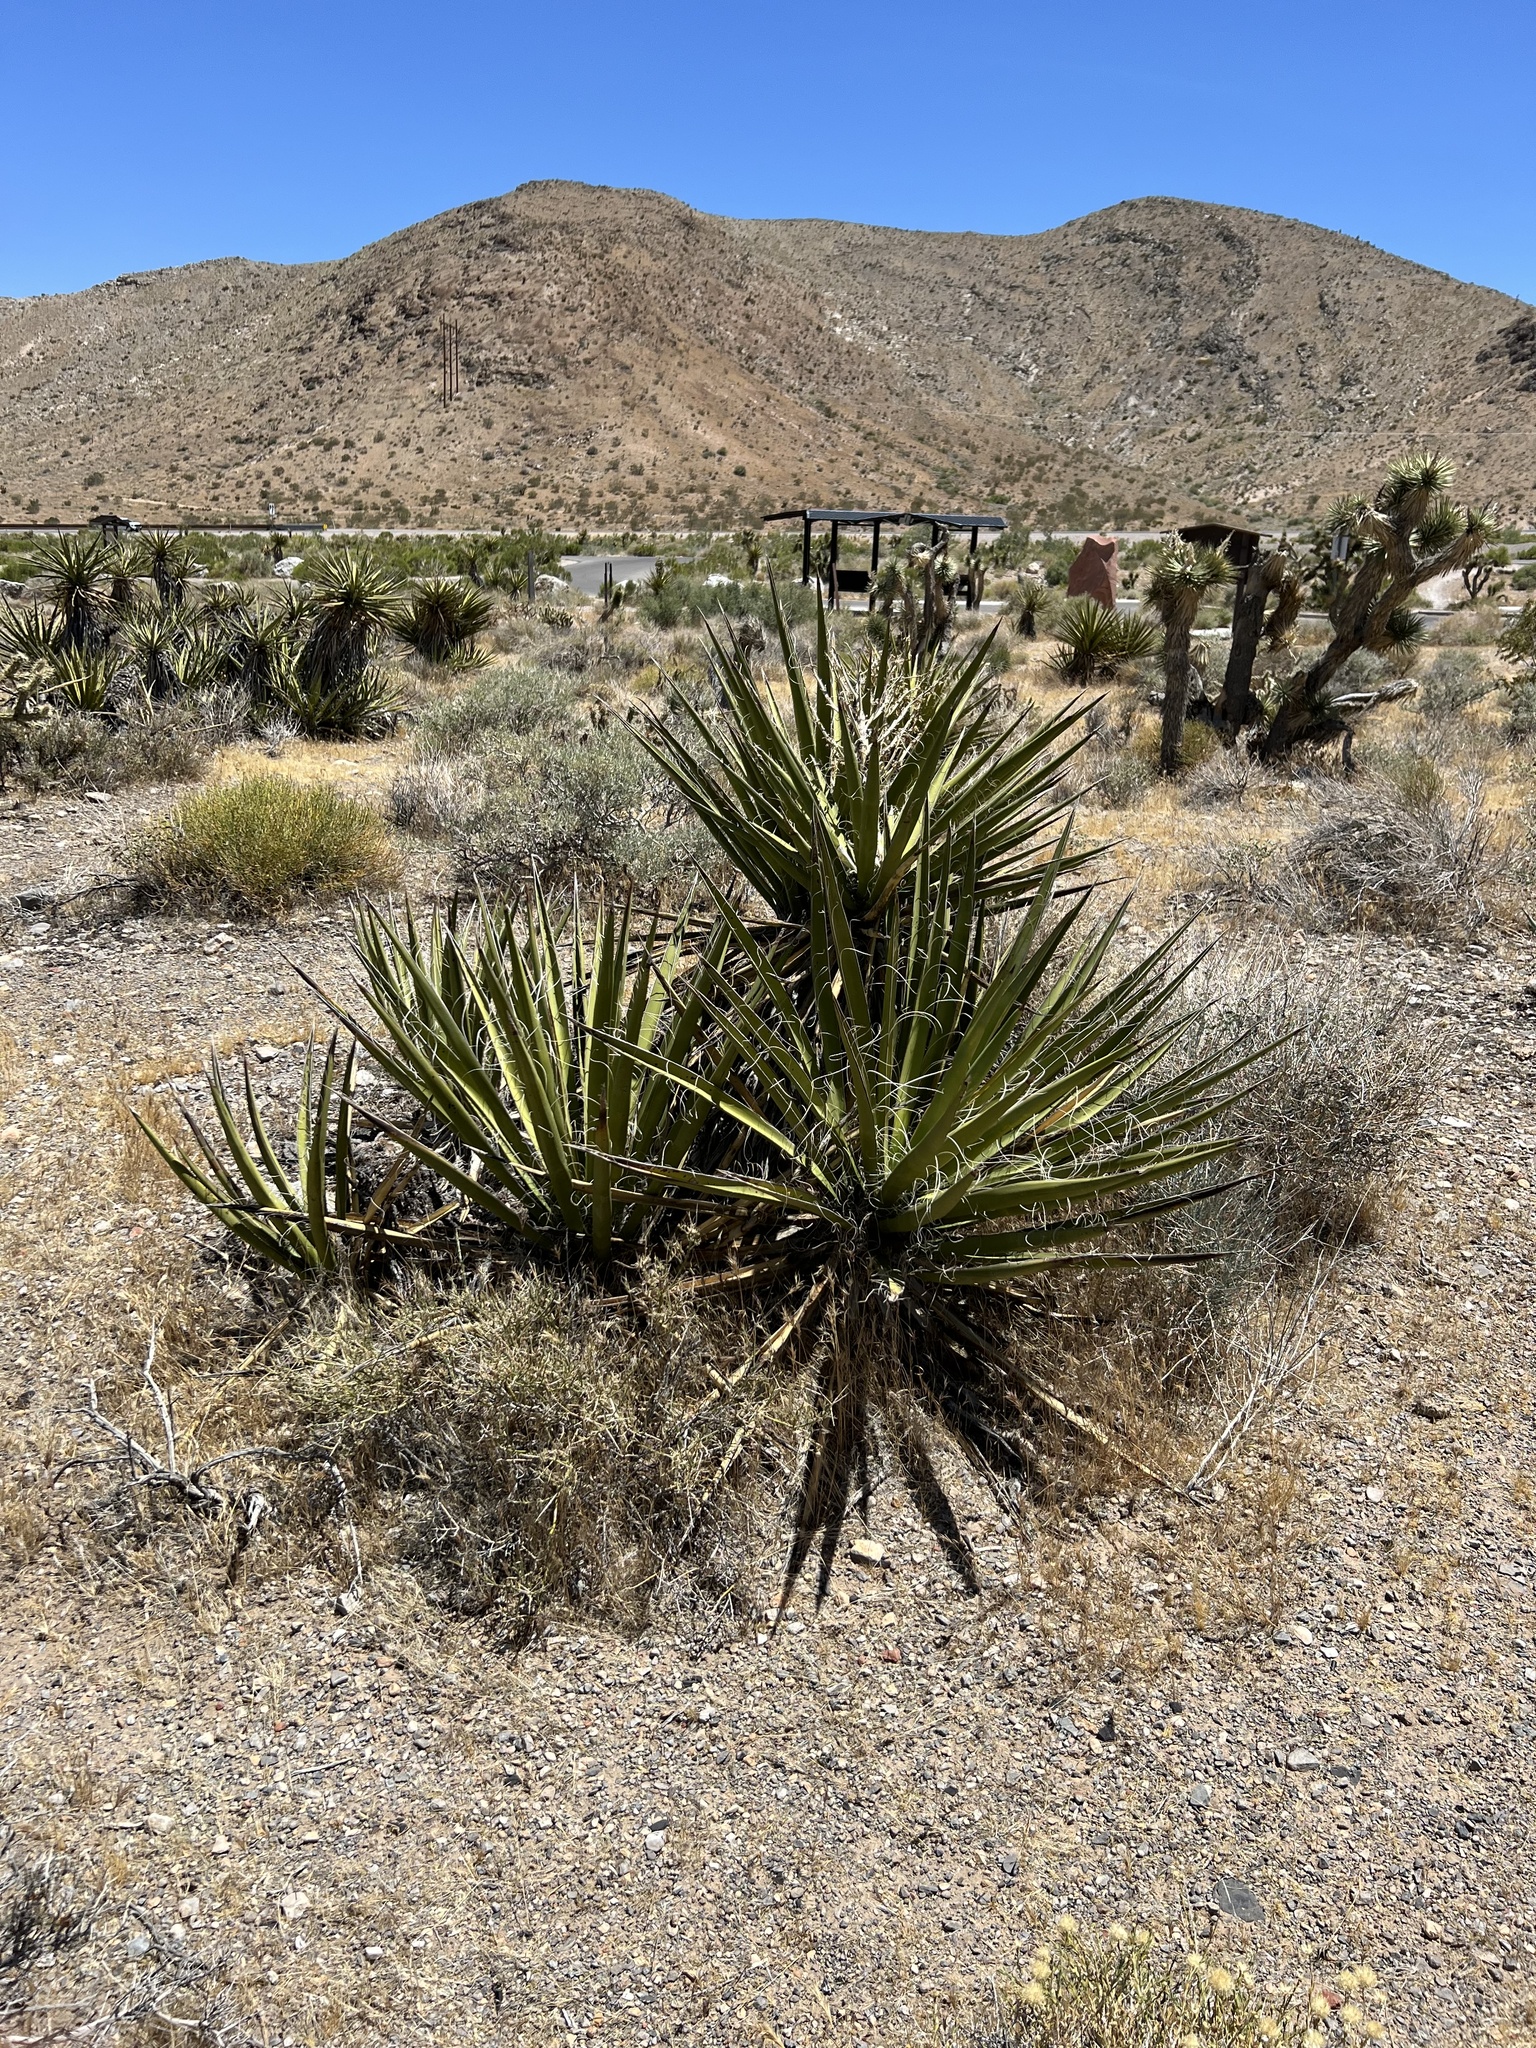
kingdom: Plantae
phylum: Tracheophyta
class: Liliopsida
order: Asparagales
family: Asparagaceae
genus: Yucca
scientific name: Yucca schidigera
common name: Mojave yucca
